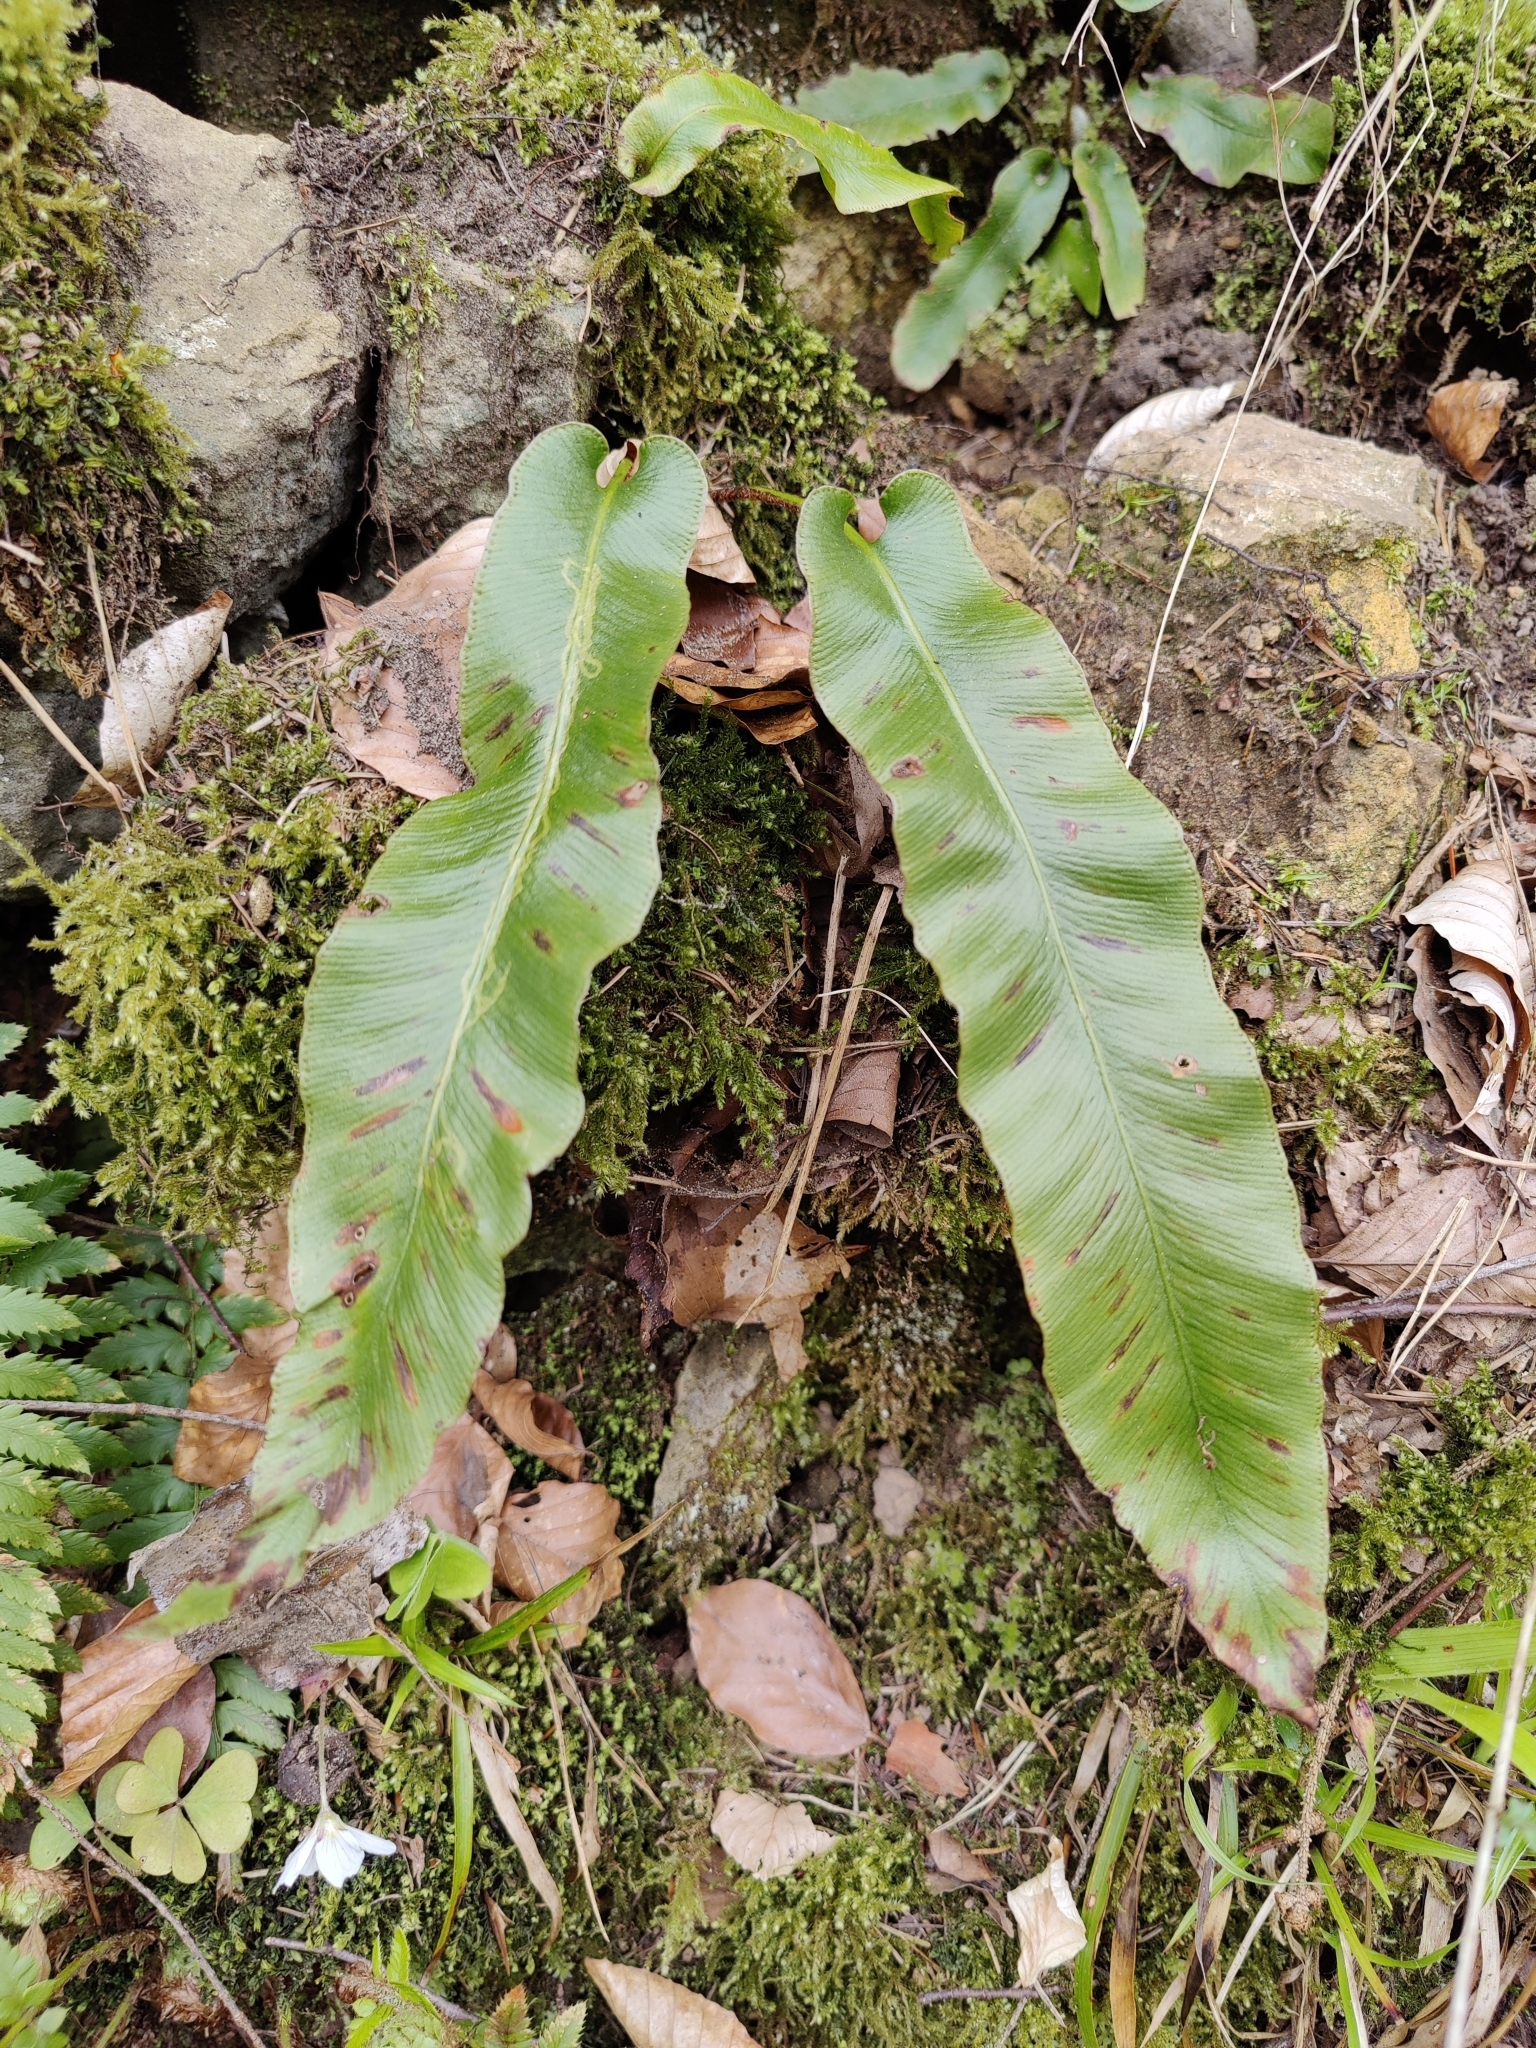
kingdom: Plantae
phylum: Tracheophyta
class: Polypodiopsida
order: Polypodiales
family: Aspleniaceae
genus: Asplenium
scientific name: Asplenium scolopendrium
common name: Hart's-tongue fern
